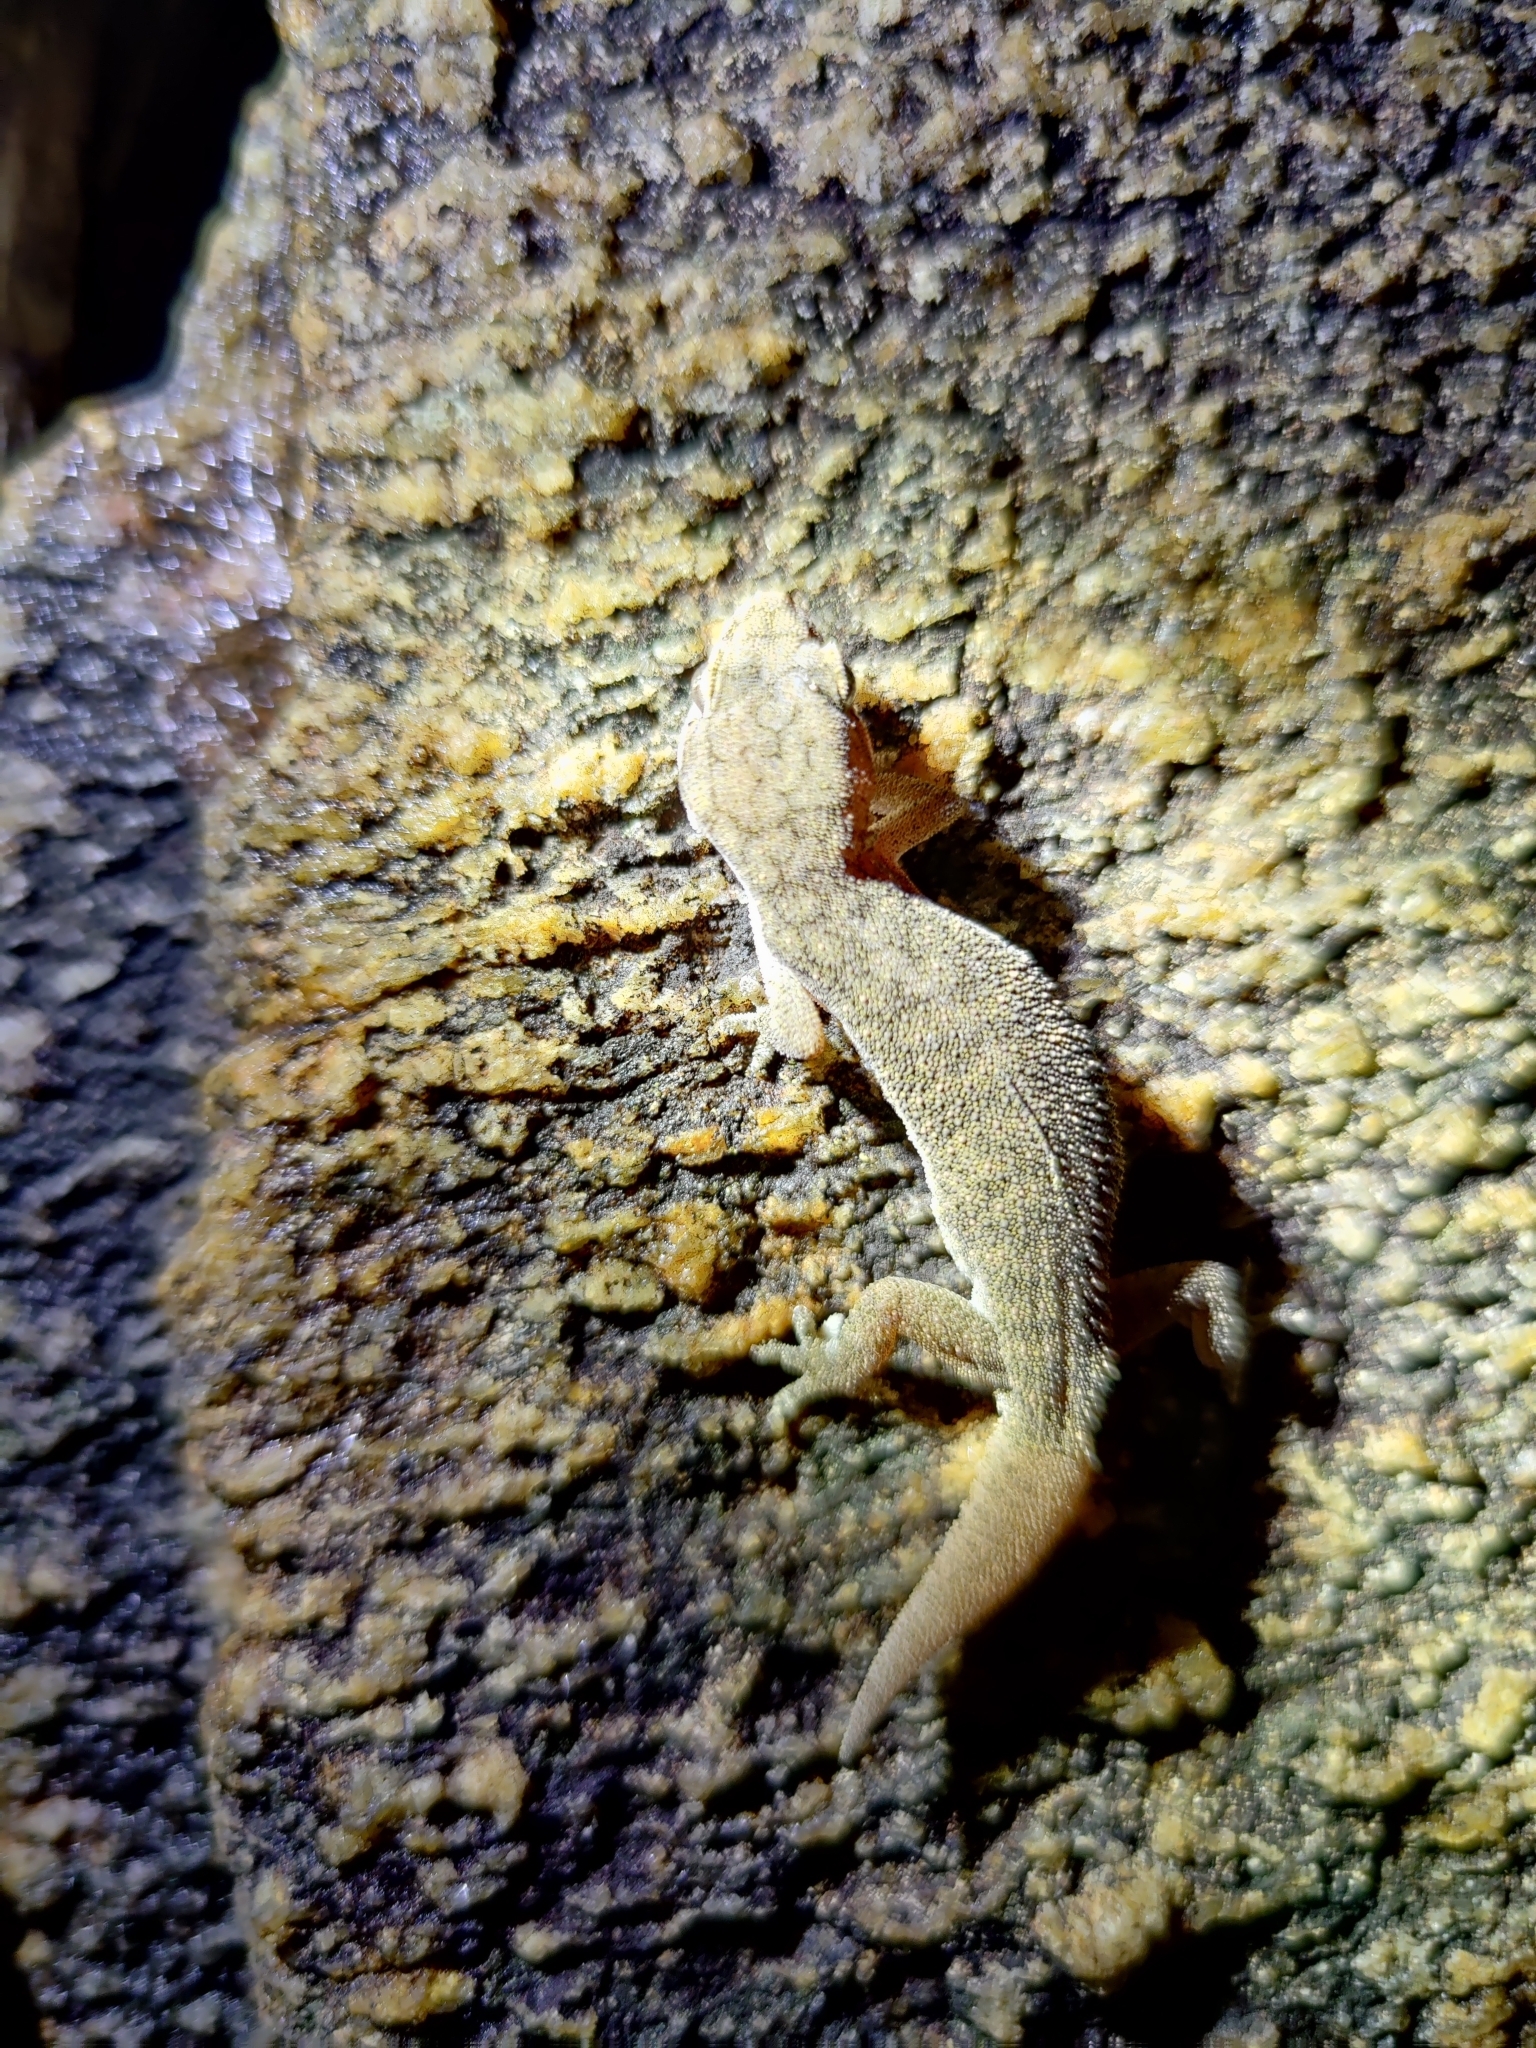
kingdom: Animalia
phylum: Chordata
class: Squamata
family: Gekkonidae
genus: Hemidactylus
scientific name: Hemidactylus reticulatus
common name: Reticulate leaf-toed gecko
